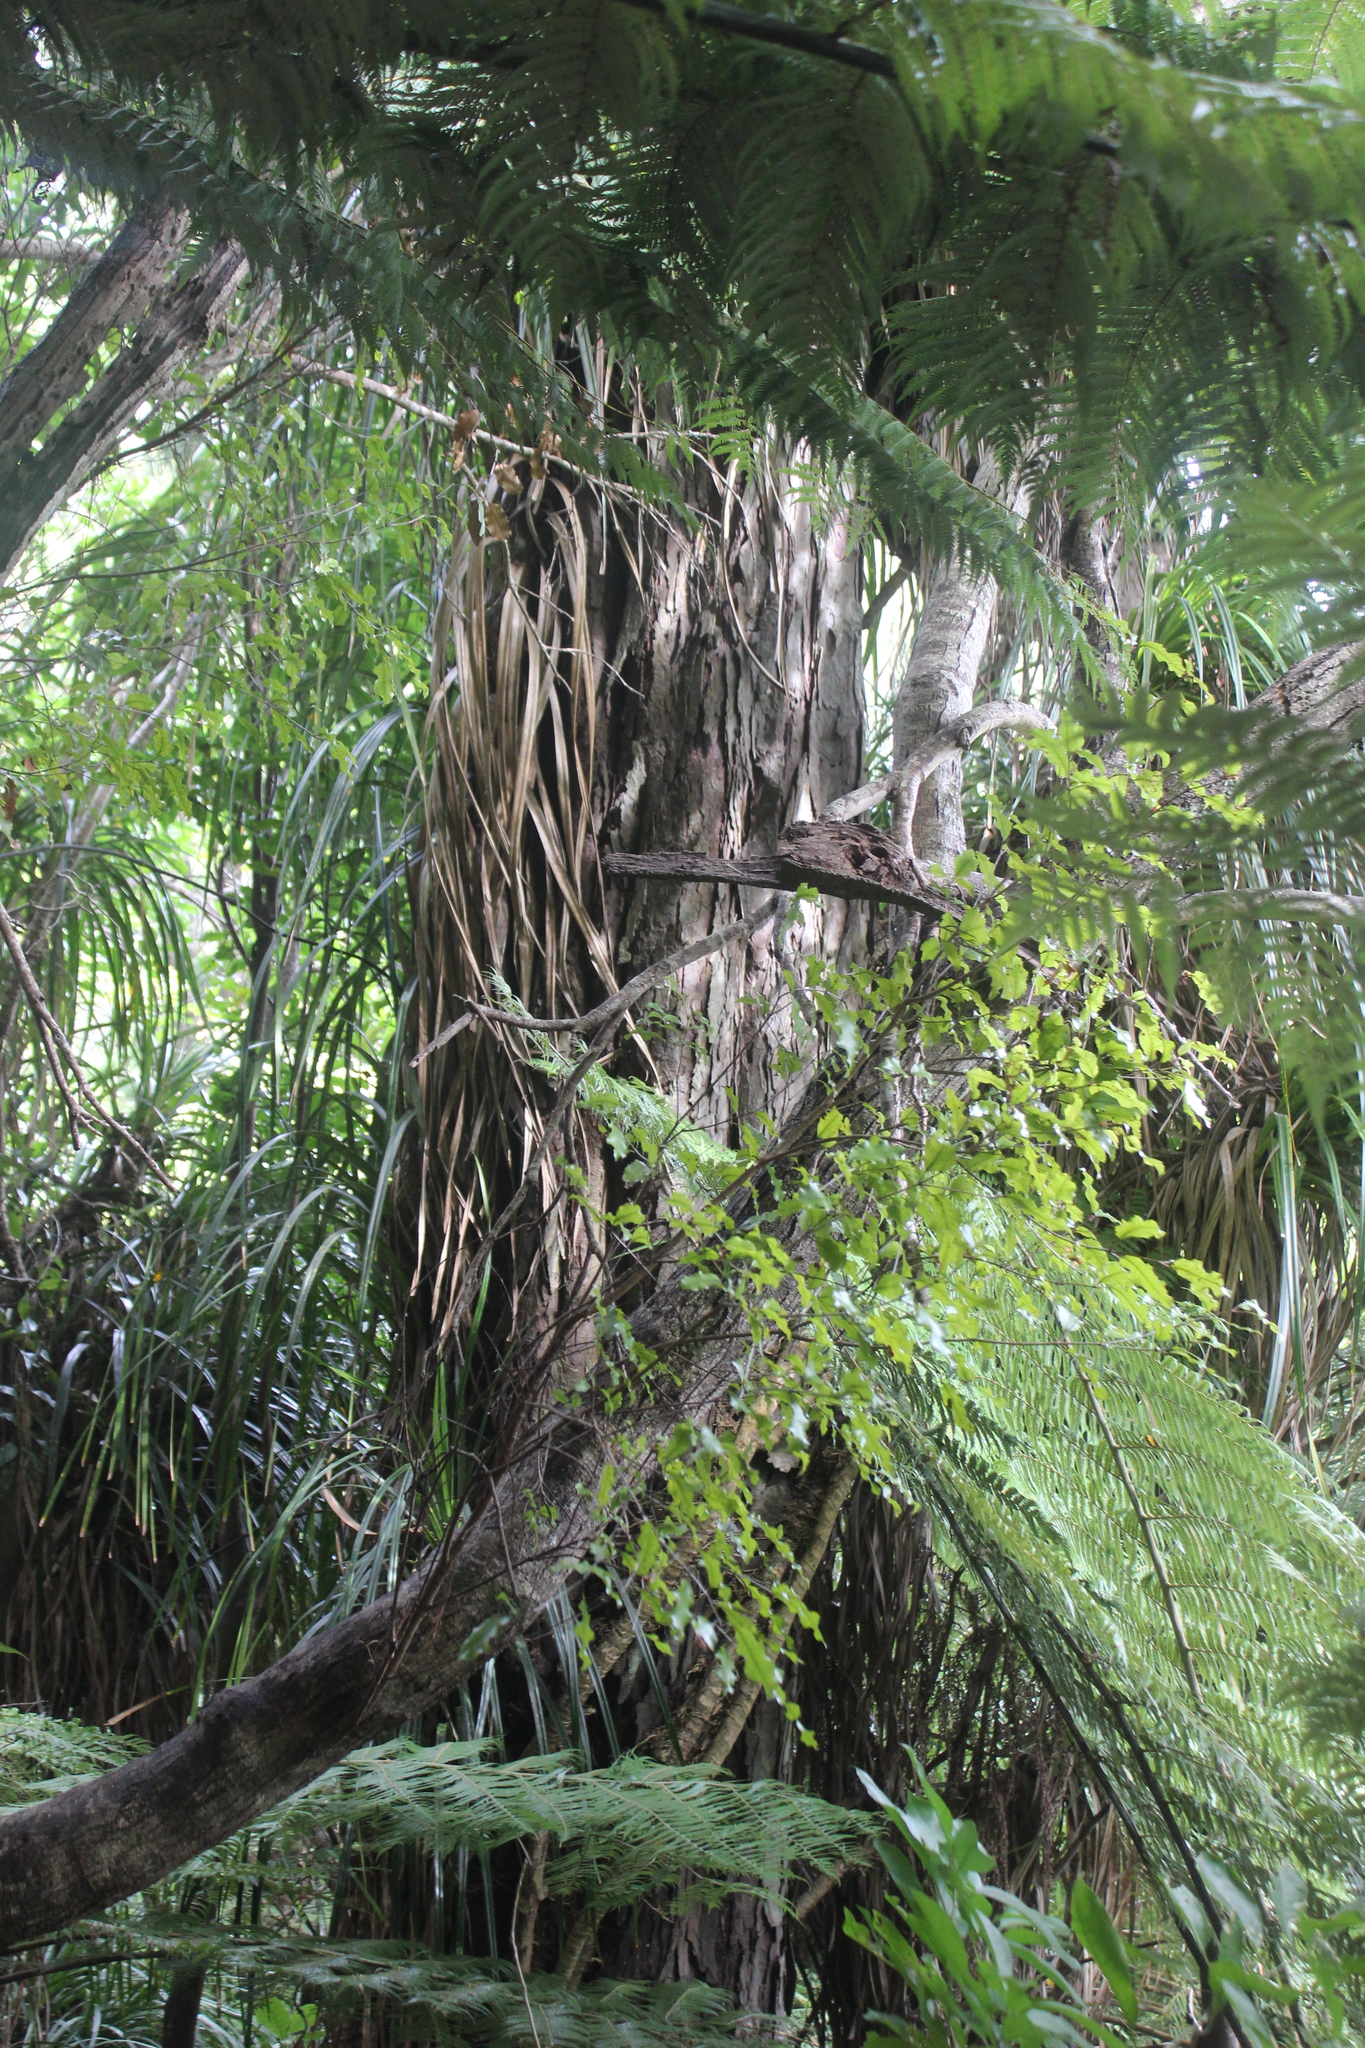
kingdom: Plantae
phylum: Tracheophyta
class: Pinopsida
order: Pinales
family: Podocarpaceae
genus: Dacrydium
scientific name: Dacrydium cupressinum
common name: Red pine
